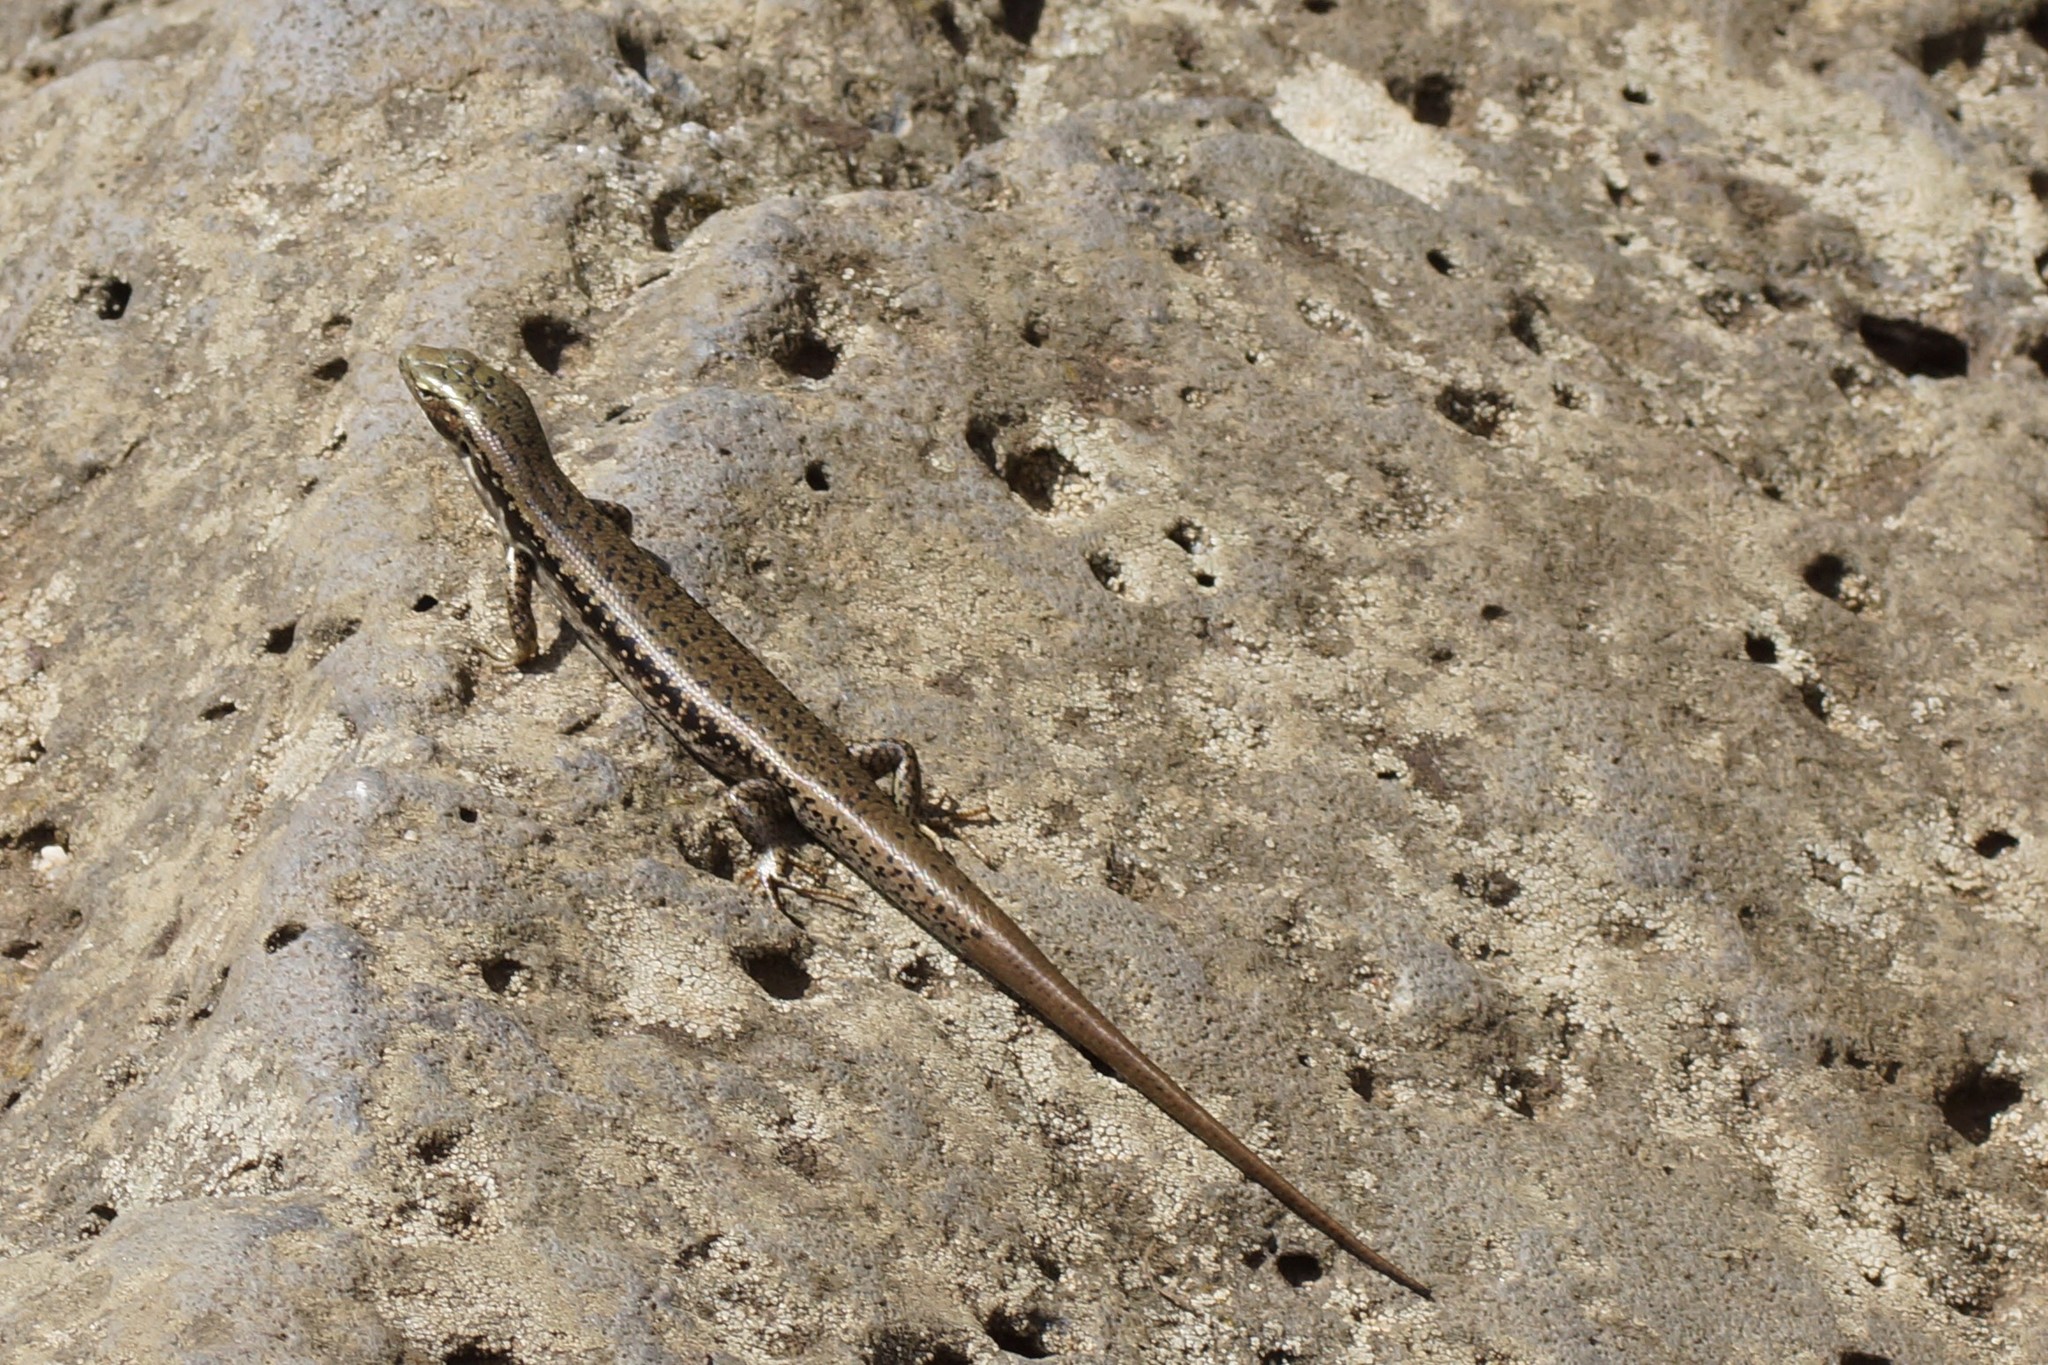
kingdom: Animalia
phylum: Chordata
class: Squamata
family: Scincidae
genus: Eulamprus
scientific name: Eulamprus tympanum
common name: Cool-temperate water-skink
